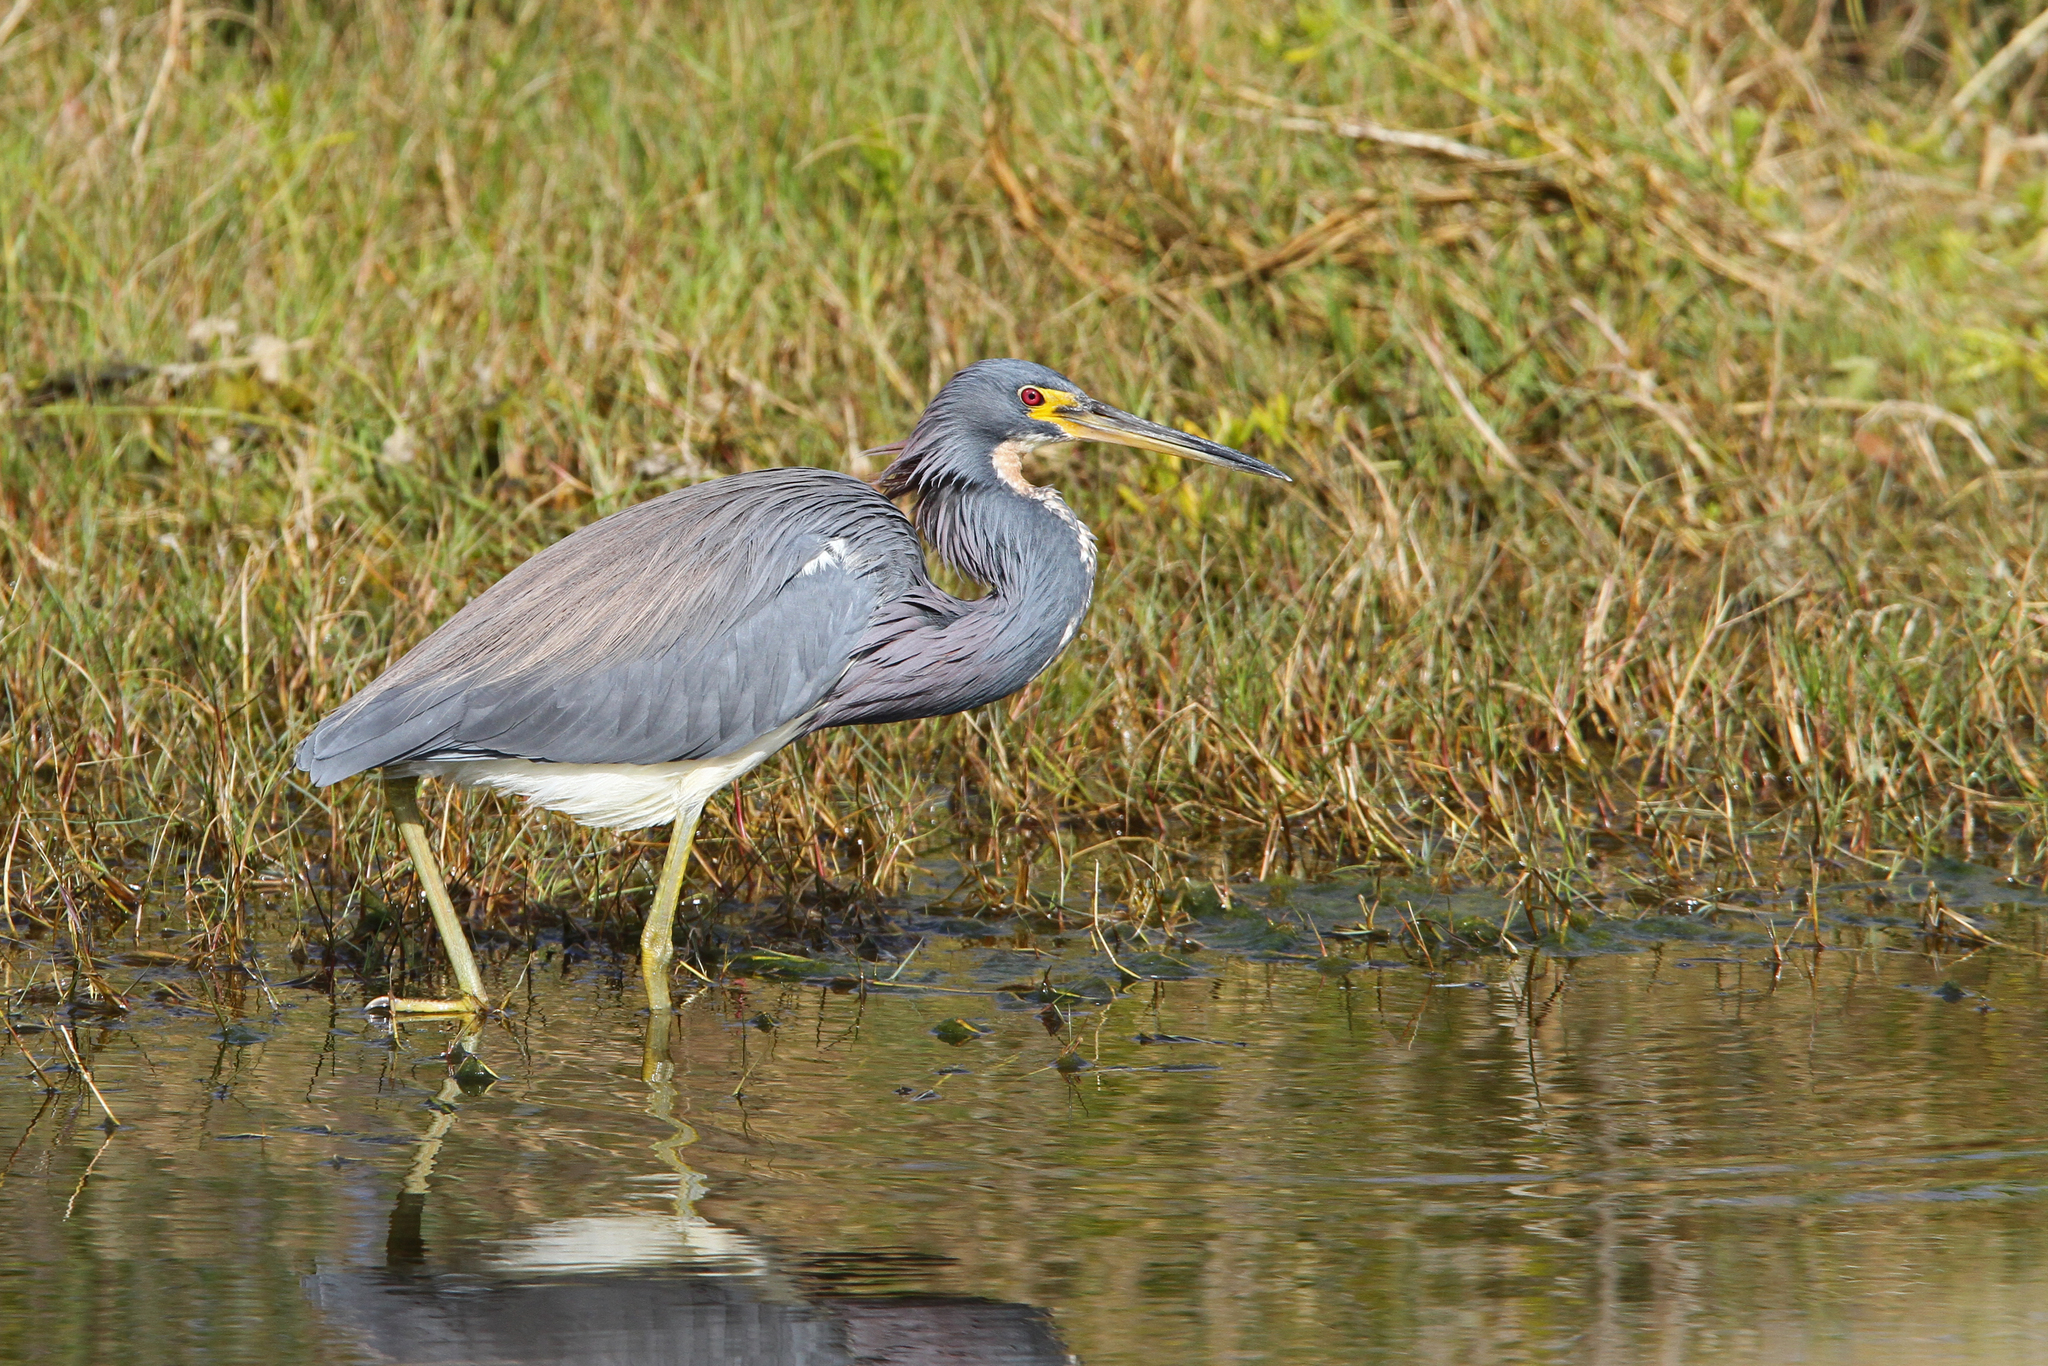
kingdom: Animalia
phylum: Chordata
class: Aves
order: Pelecaniformes
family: Ardeidae
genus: Egretta
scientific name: Egretta tricolor
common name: Tricolored heron
